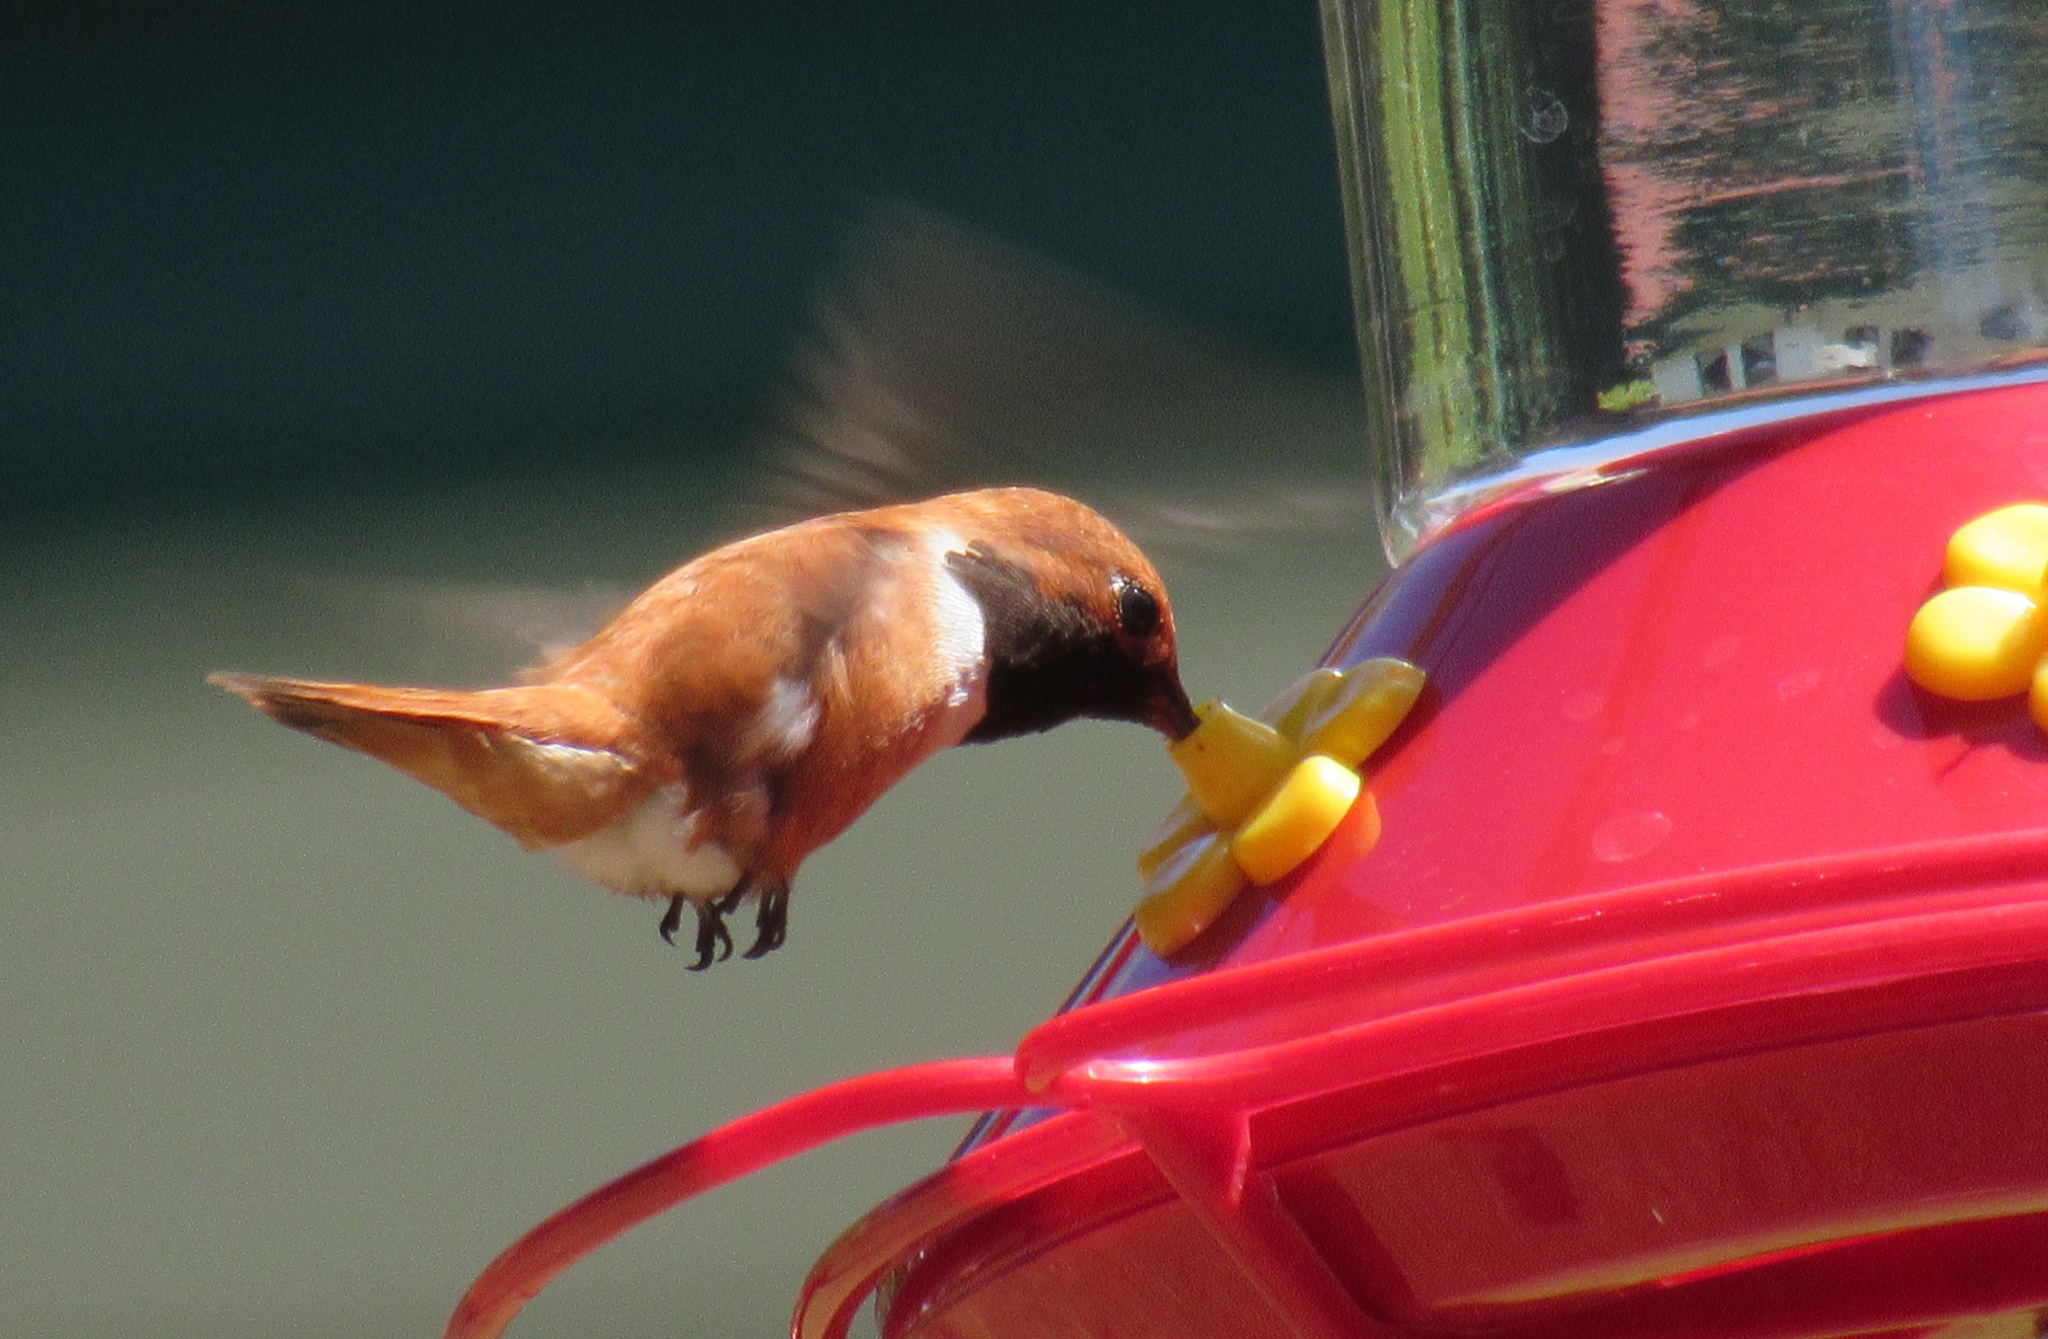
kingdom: Animalia
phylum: Chordata
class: Aves
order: Apodiformes
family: Trochilidae
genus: Selasphorus
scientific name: Selasphorus rufus
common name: Rufous hummingbird
